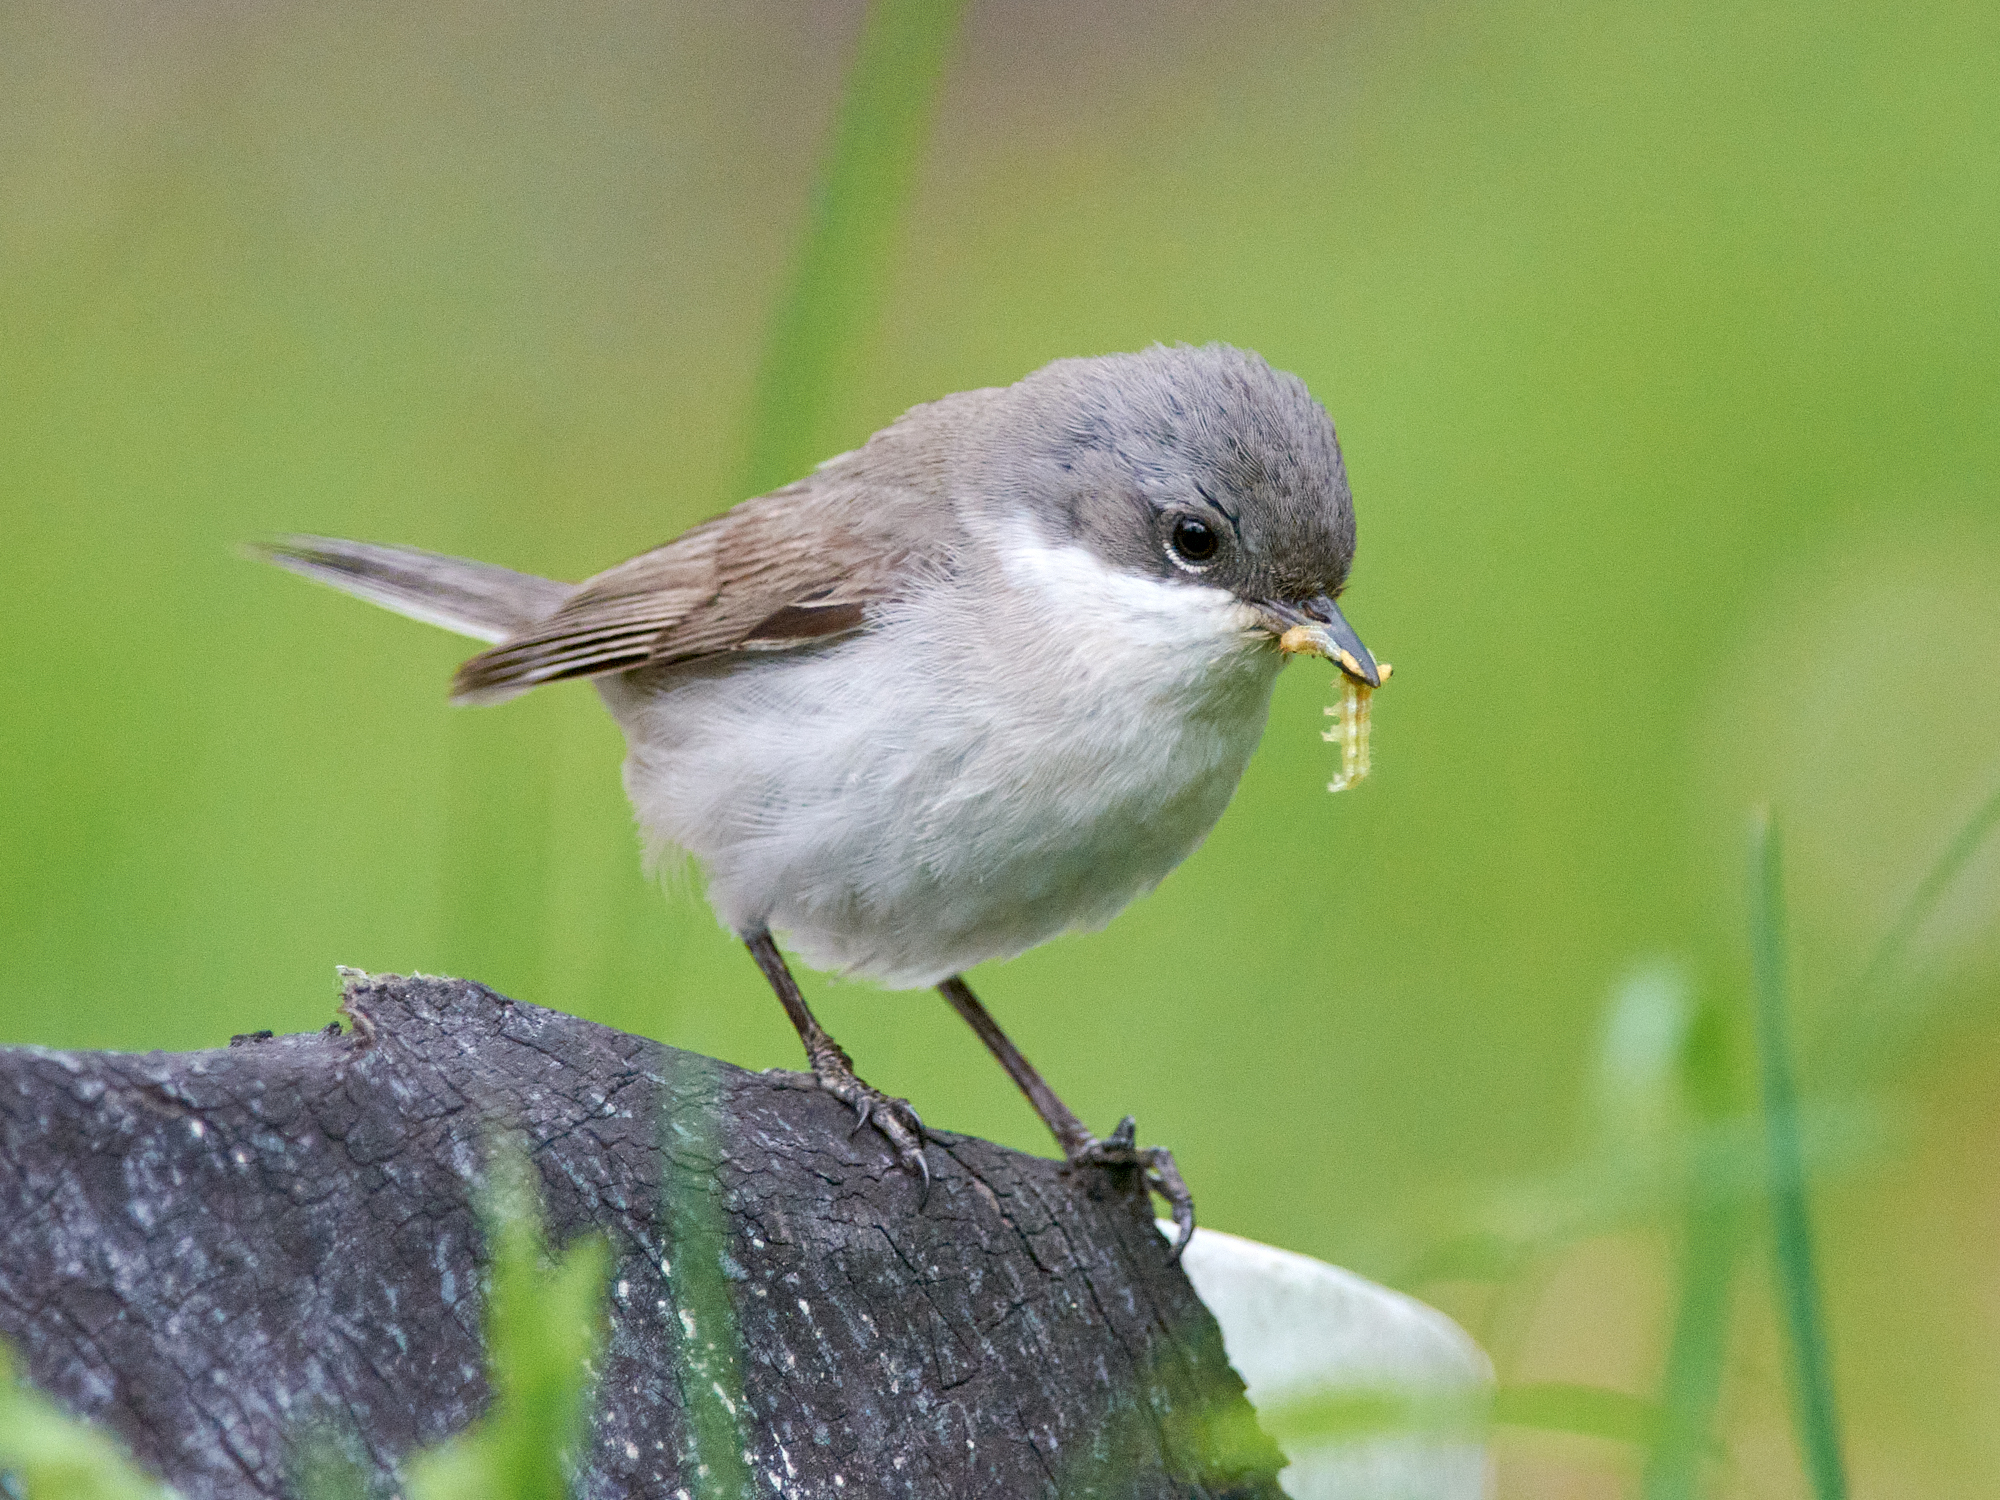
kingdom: Animalia
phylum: Chordata
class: Aves
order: Passeriformes
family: Sylviidae
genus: Sylvia
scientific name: Sylvia curruca
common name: Lesser whitethroat
